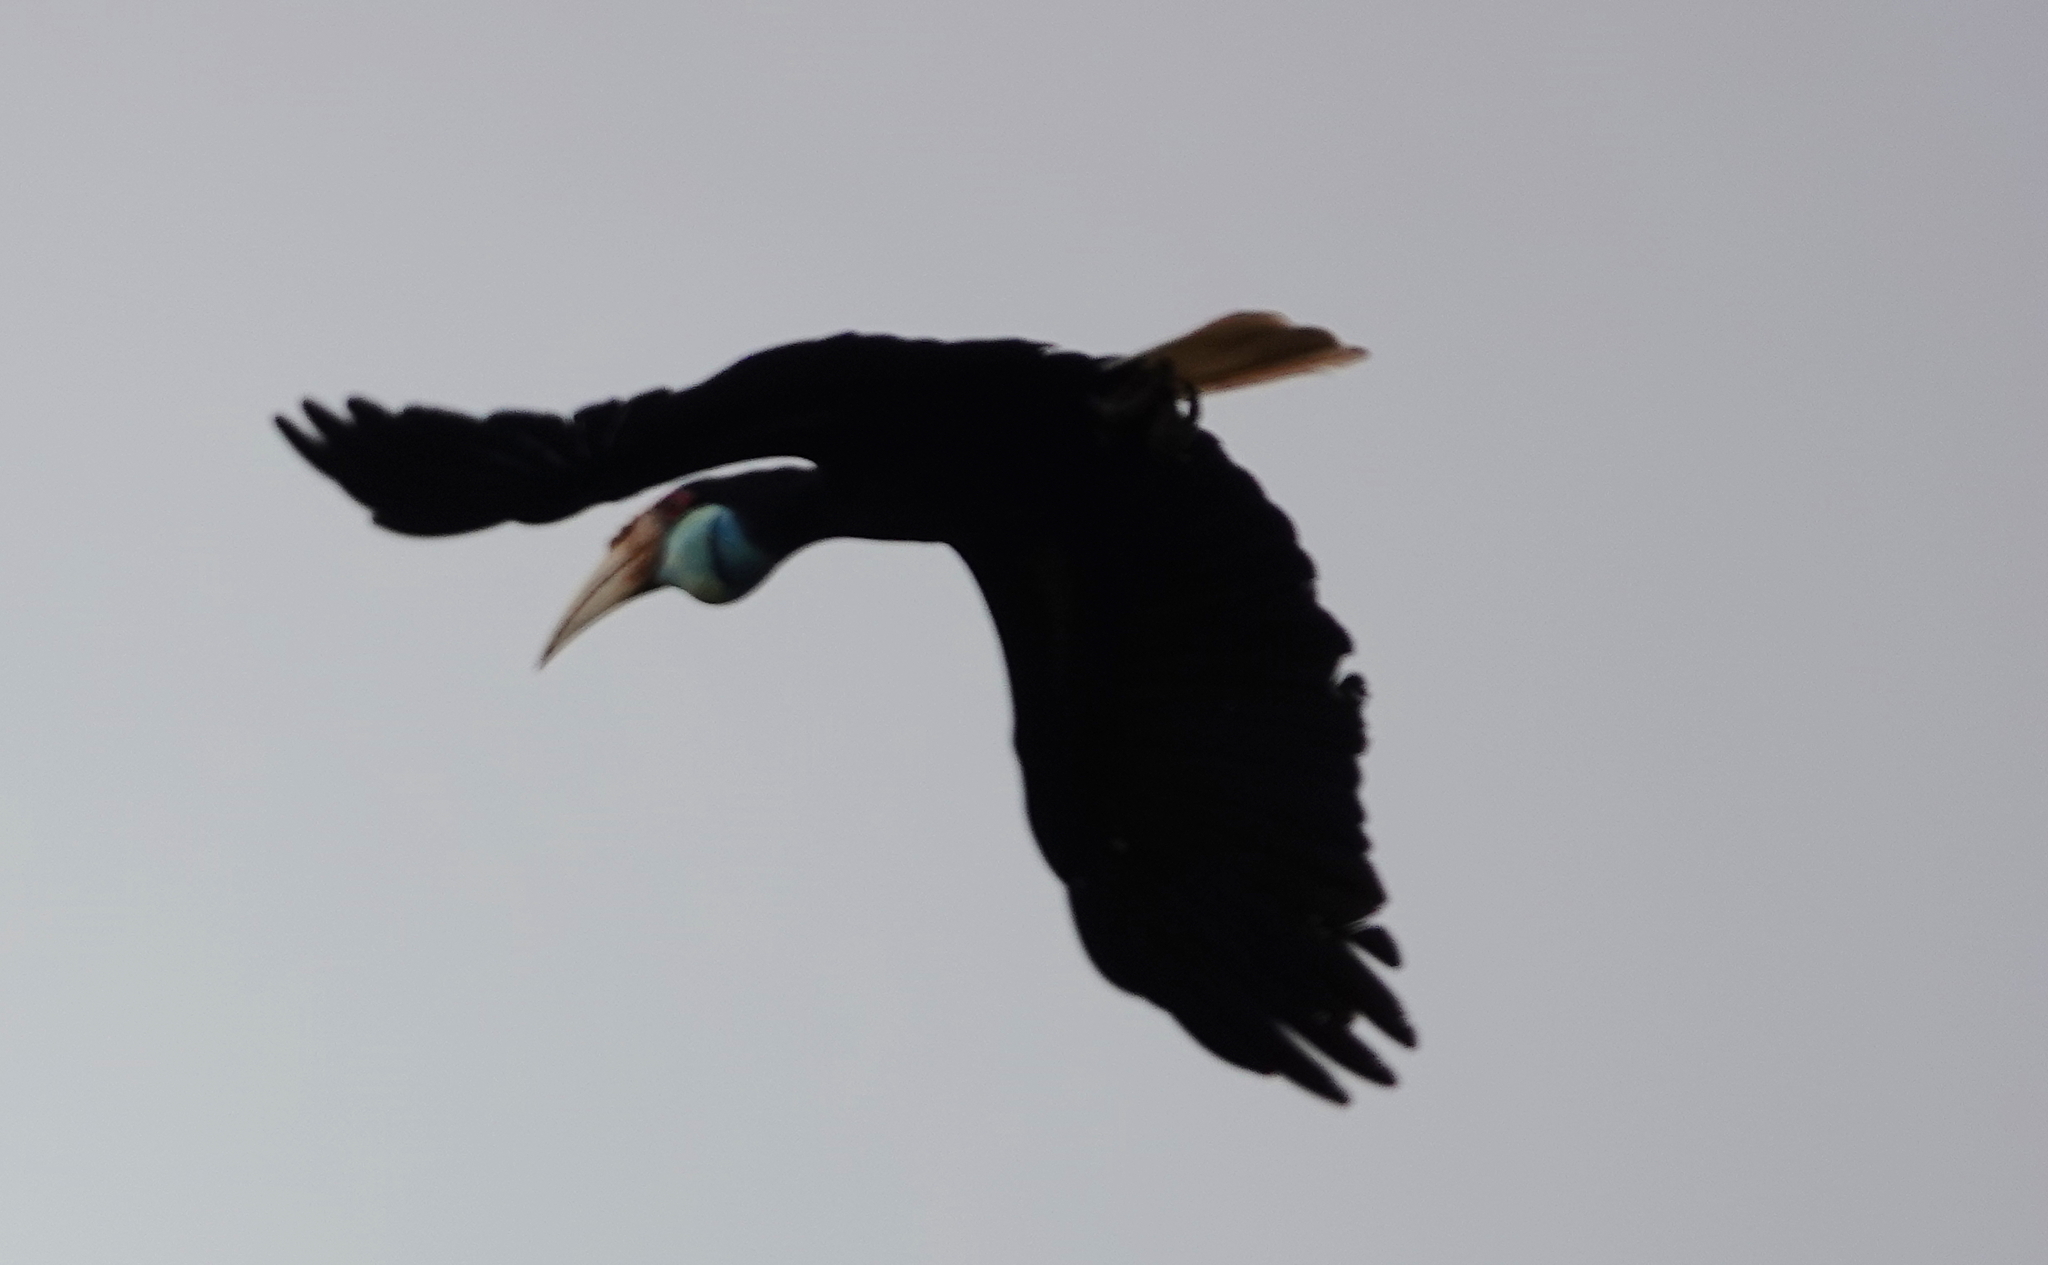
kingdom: Animalia
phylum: Chordata
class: Aves
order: Bucerotiformes
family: Bucerotidae
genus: Rhyticeros
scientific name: Rhyticeros undulatus
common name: Wreathed hornbill
